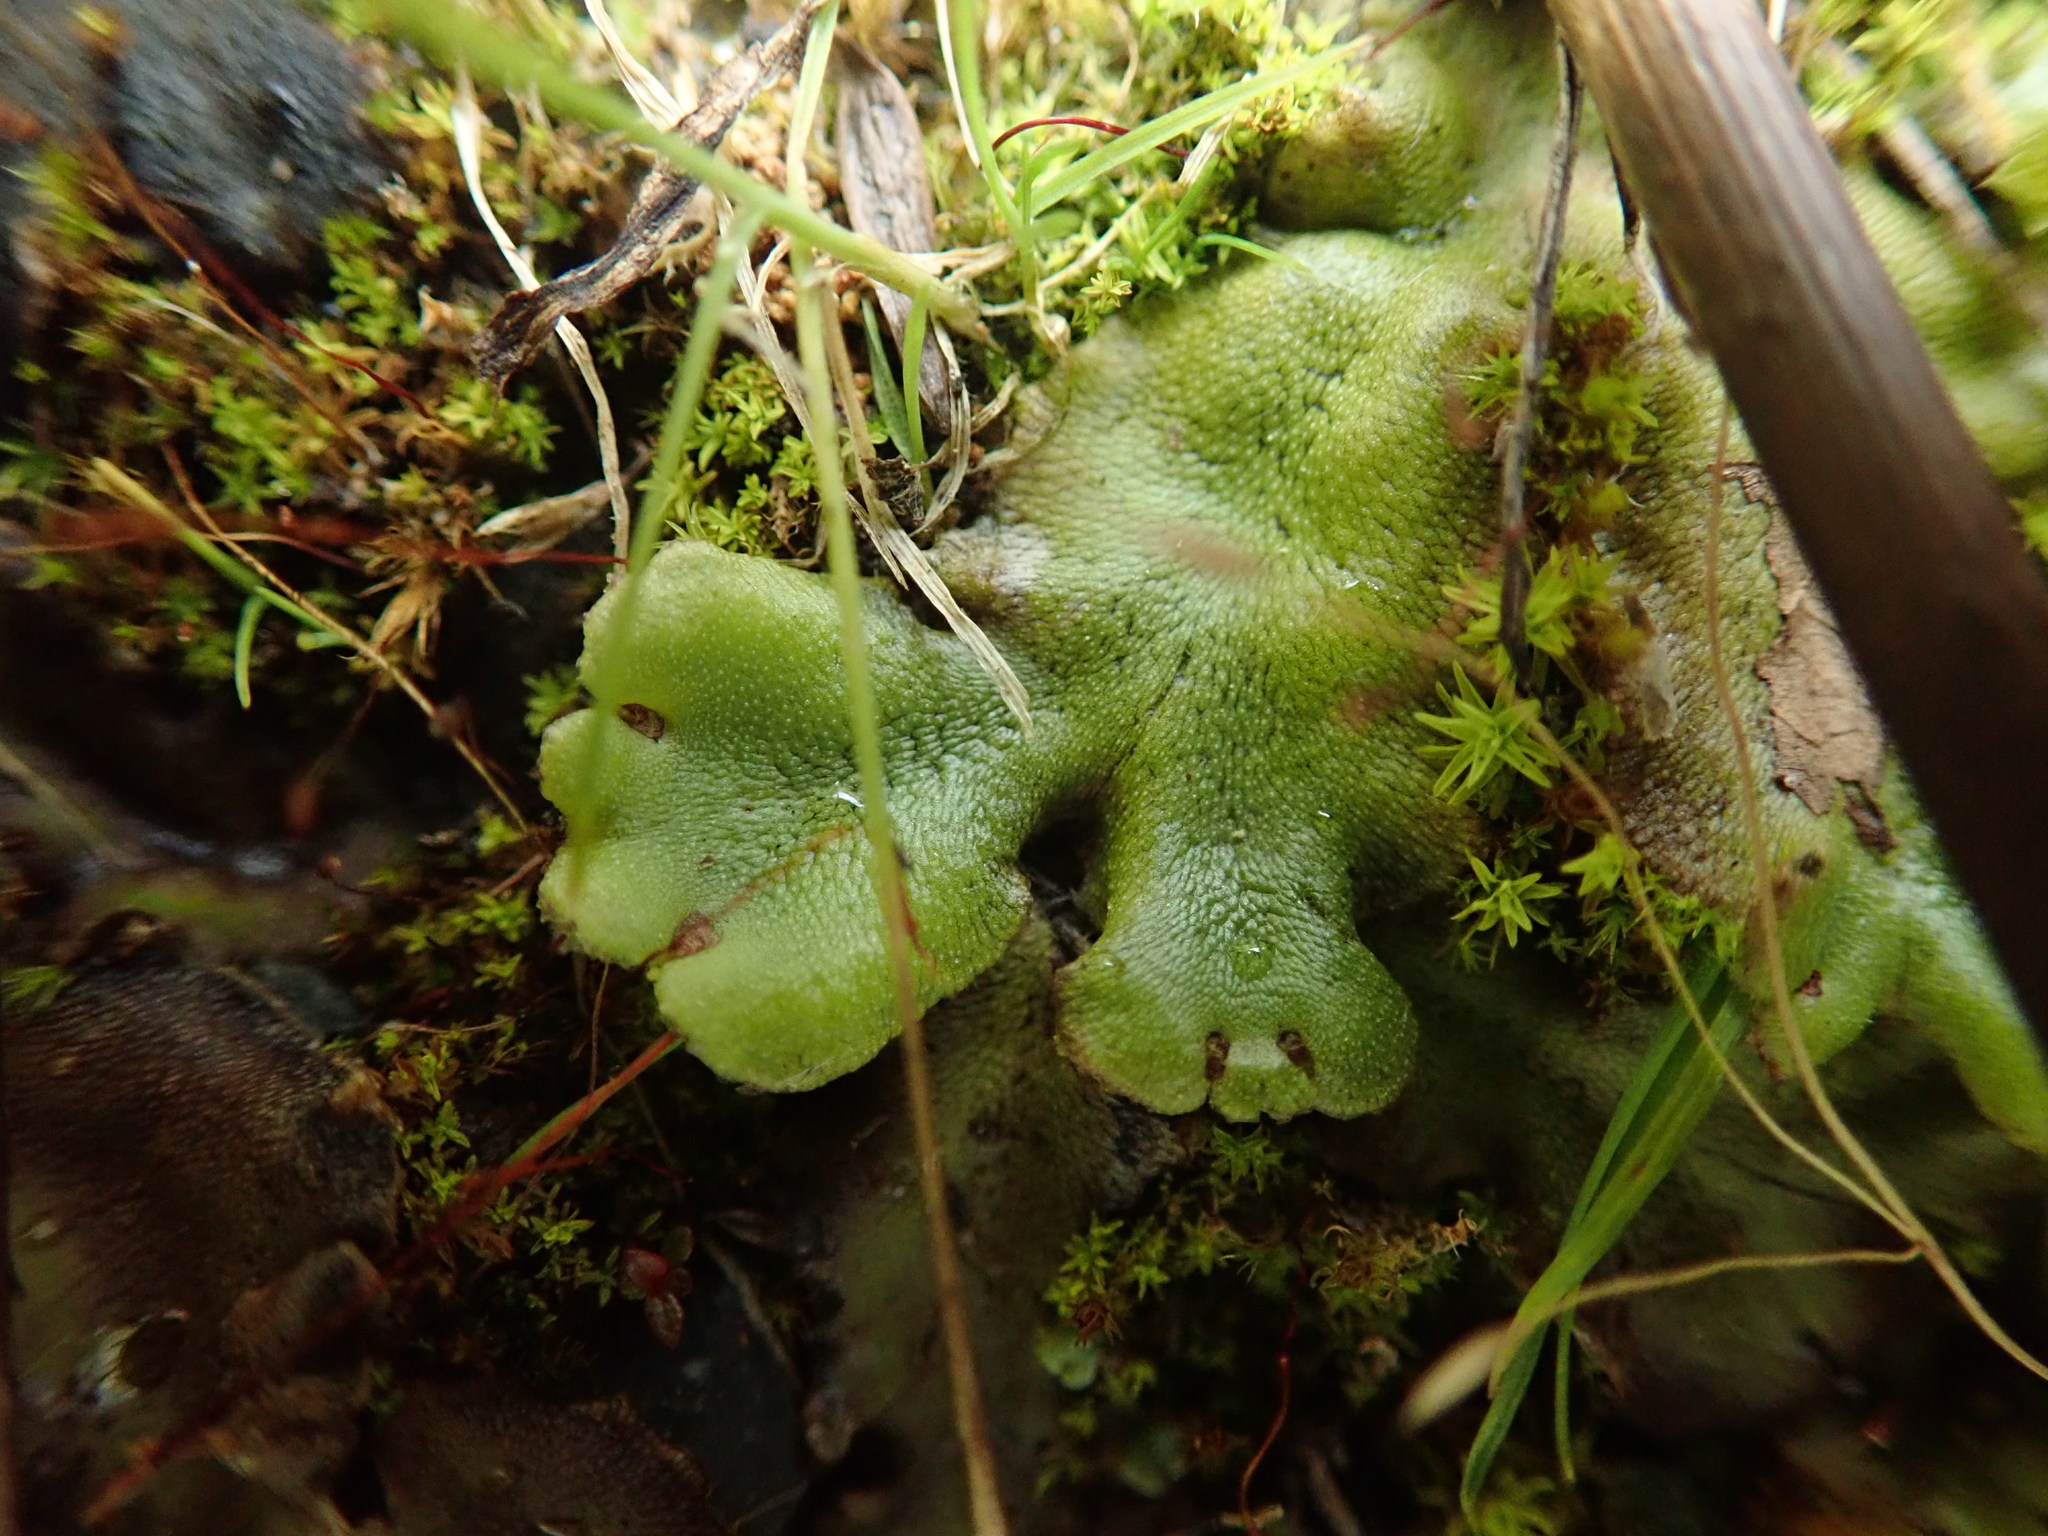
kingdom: Plantae
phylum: Marchantiophyta
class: Marchantiopsida
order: Marchantiales
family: Marchantiaceae
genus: Marchantia
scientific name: Marchantia polymorpha
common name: Common liverwort
